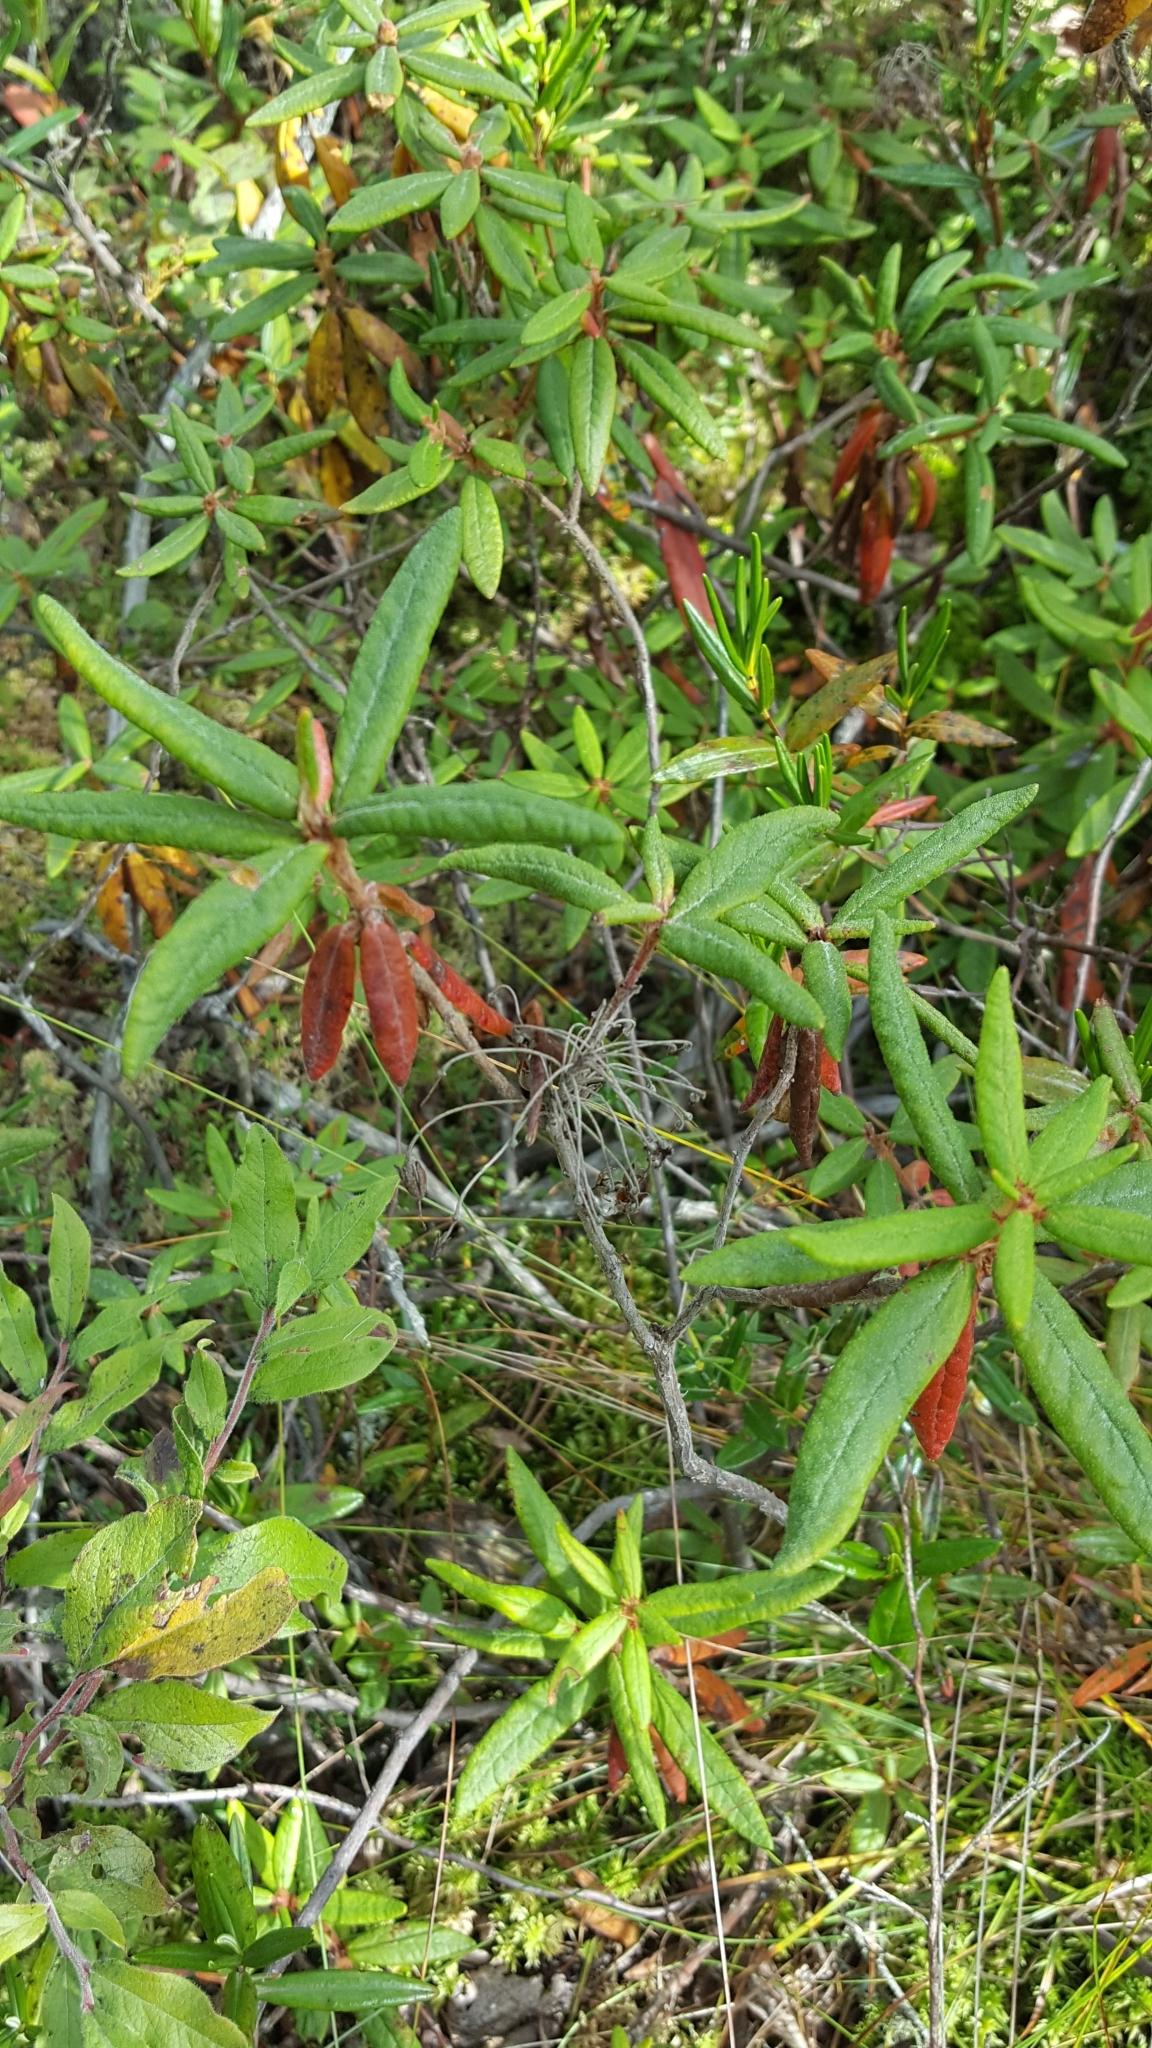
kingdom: Plantae
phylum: Tracheophyta
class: Magnoliopsida
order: Ericales
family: Ericaceae
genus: Rhododendron
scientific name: Rhododendron groenlandicum
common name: Bog labrador tea
